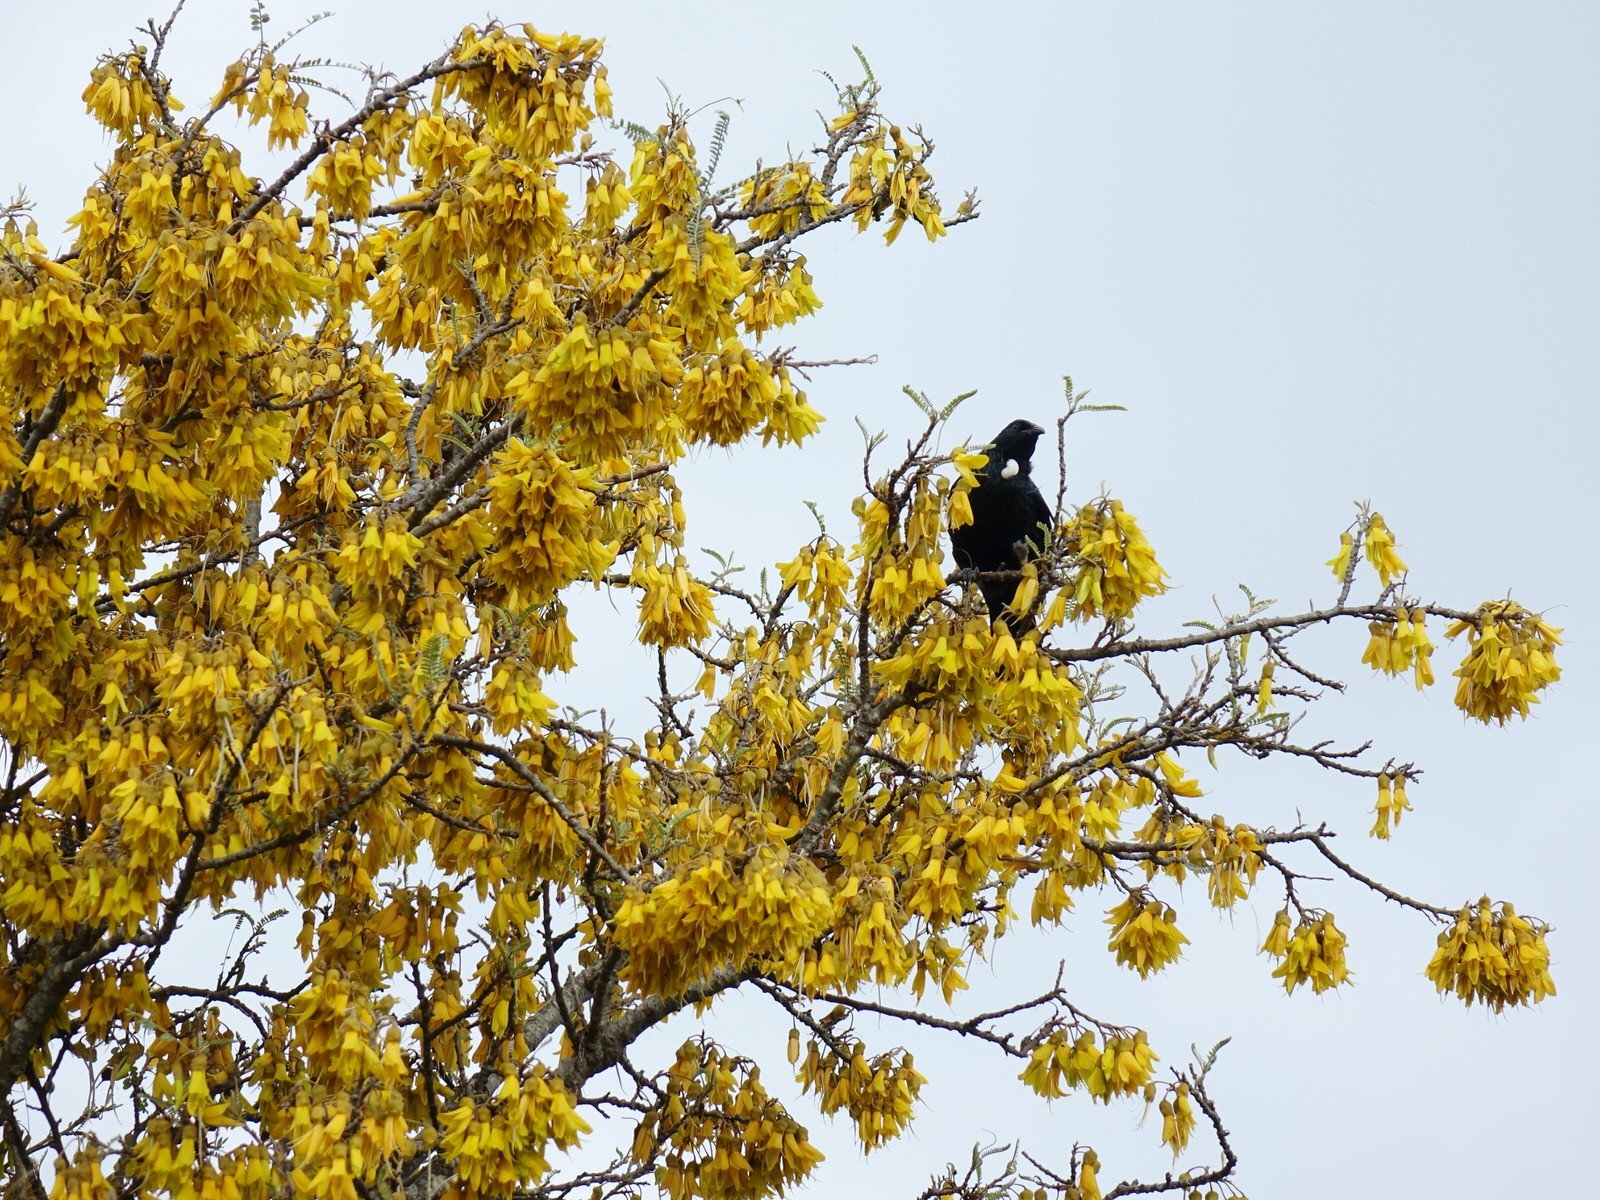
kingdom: Animalia
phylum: Chordata
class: Aves
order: Passeriformes
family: Meliphagidae
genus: Prosthemadera
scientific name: Prosthemadera novaeseelandiae
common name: Tui
